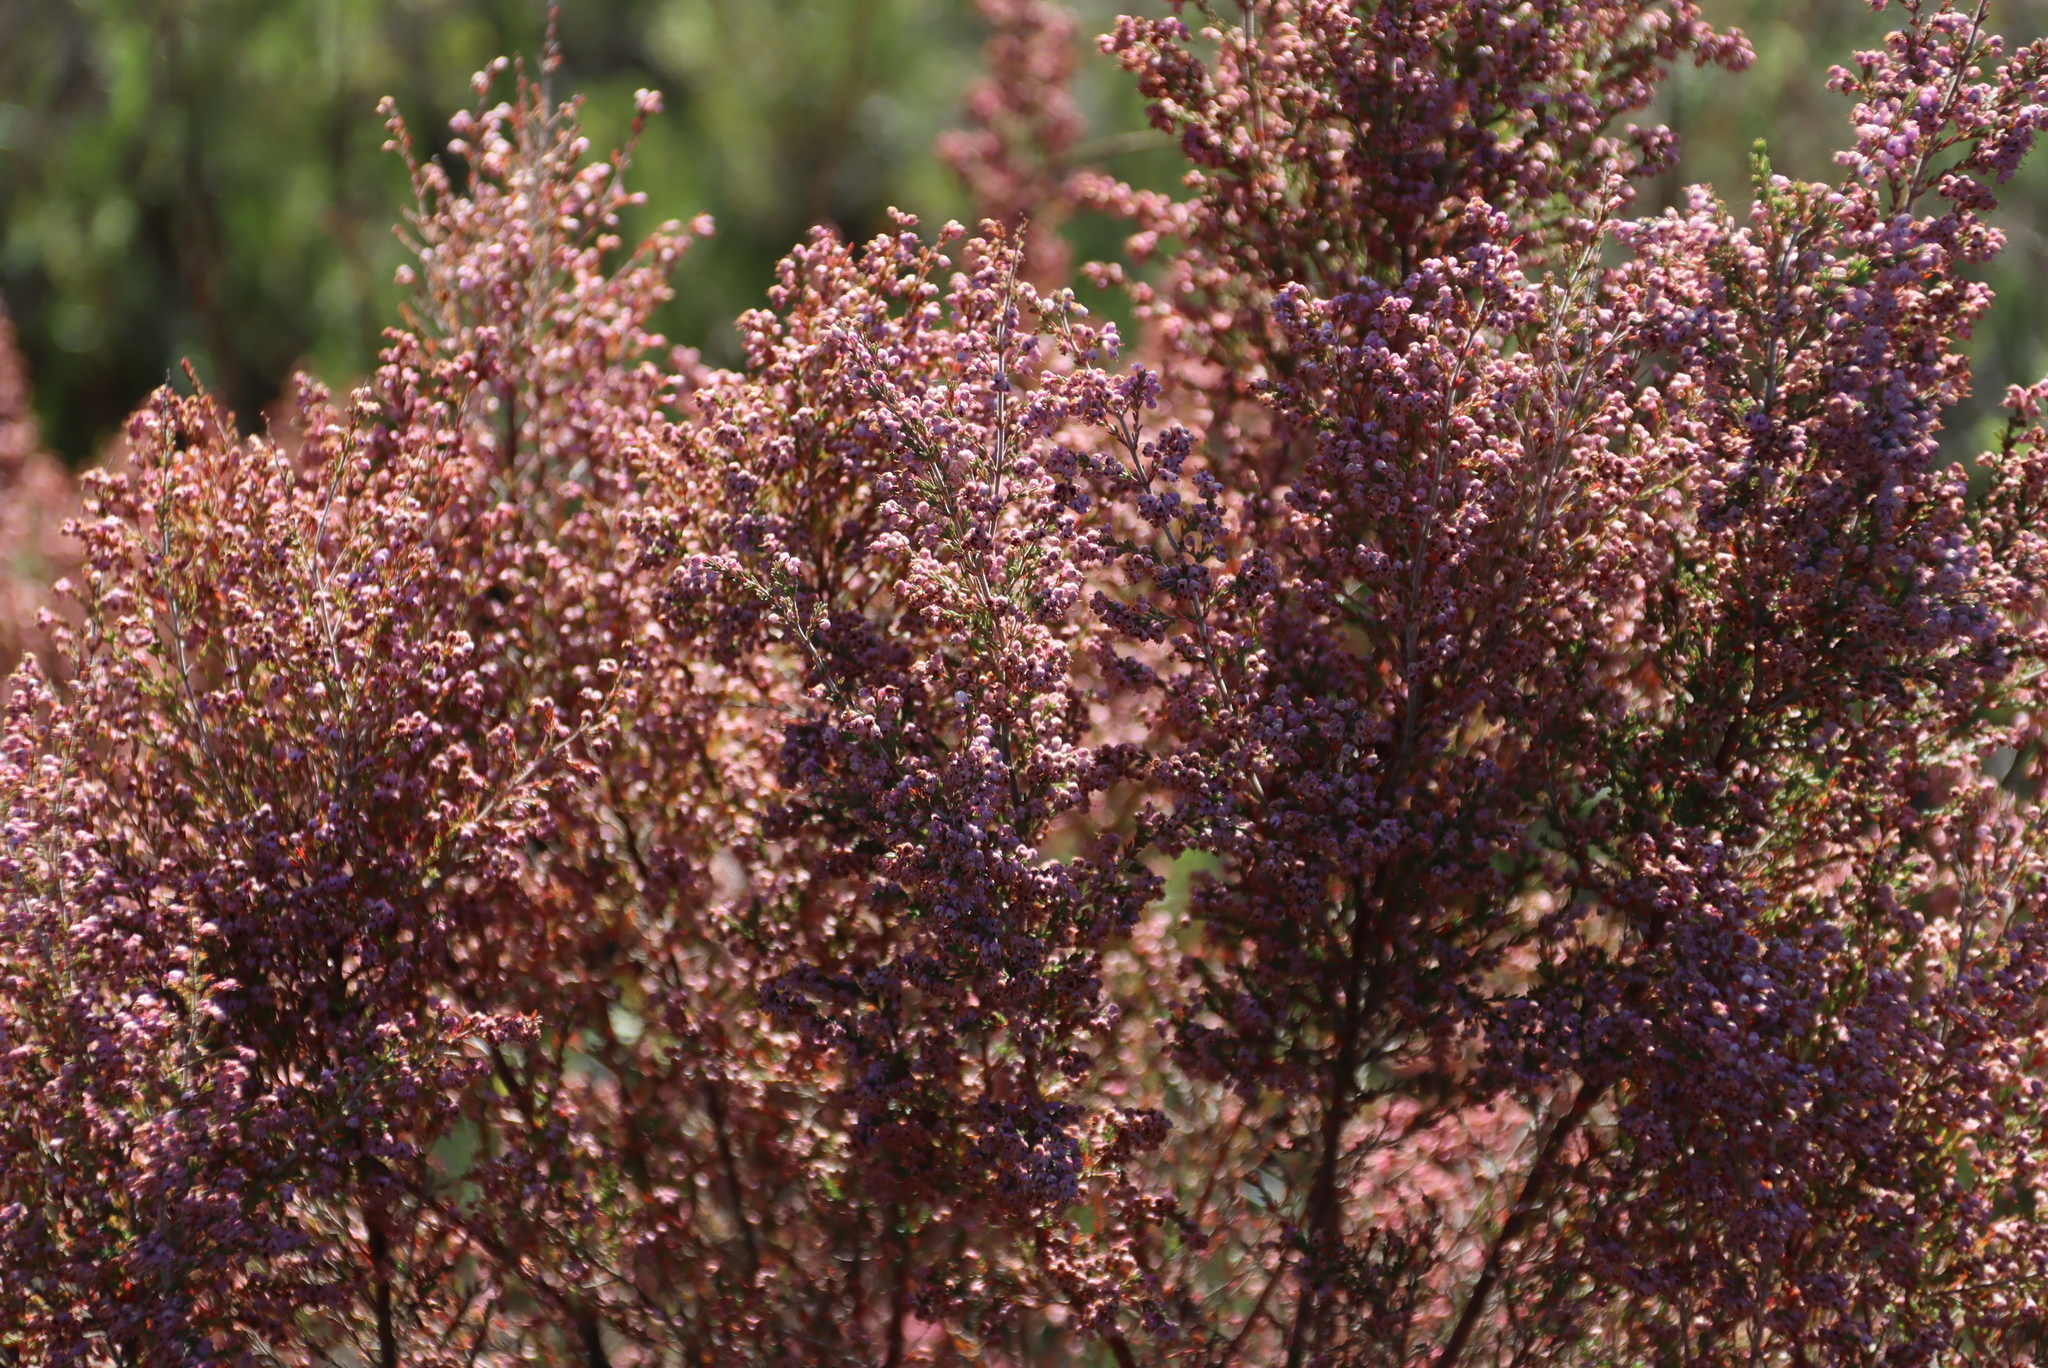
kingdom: Plantae
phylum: Tracheophyta
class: Magnoliopsida
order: Ericales
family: Ericaceae
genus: Erica
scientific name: Erica sparsa
